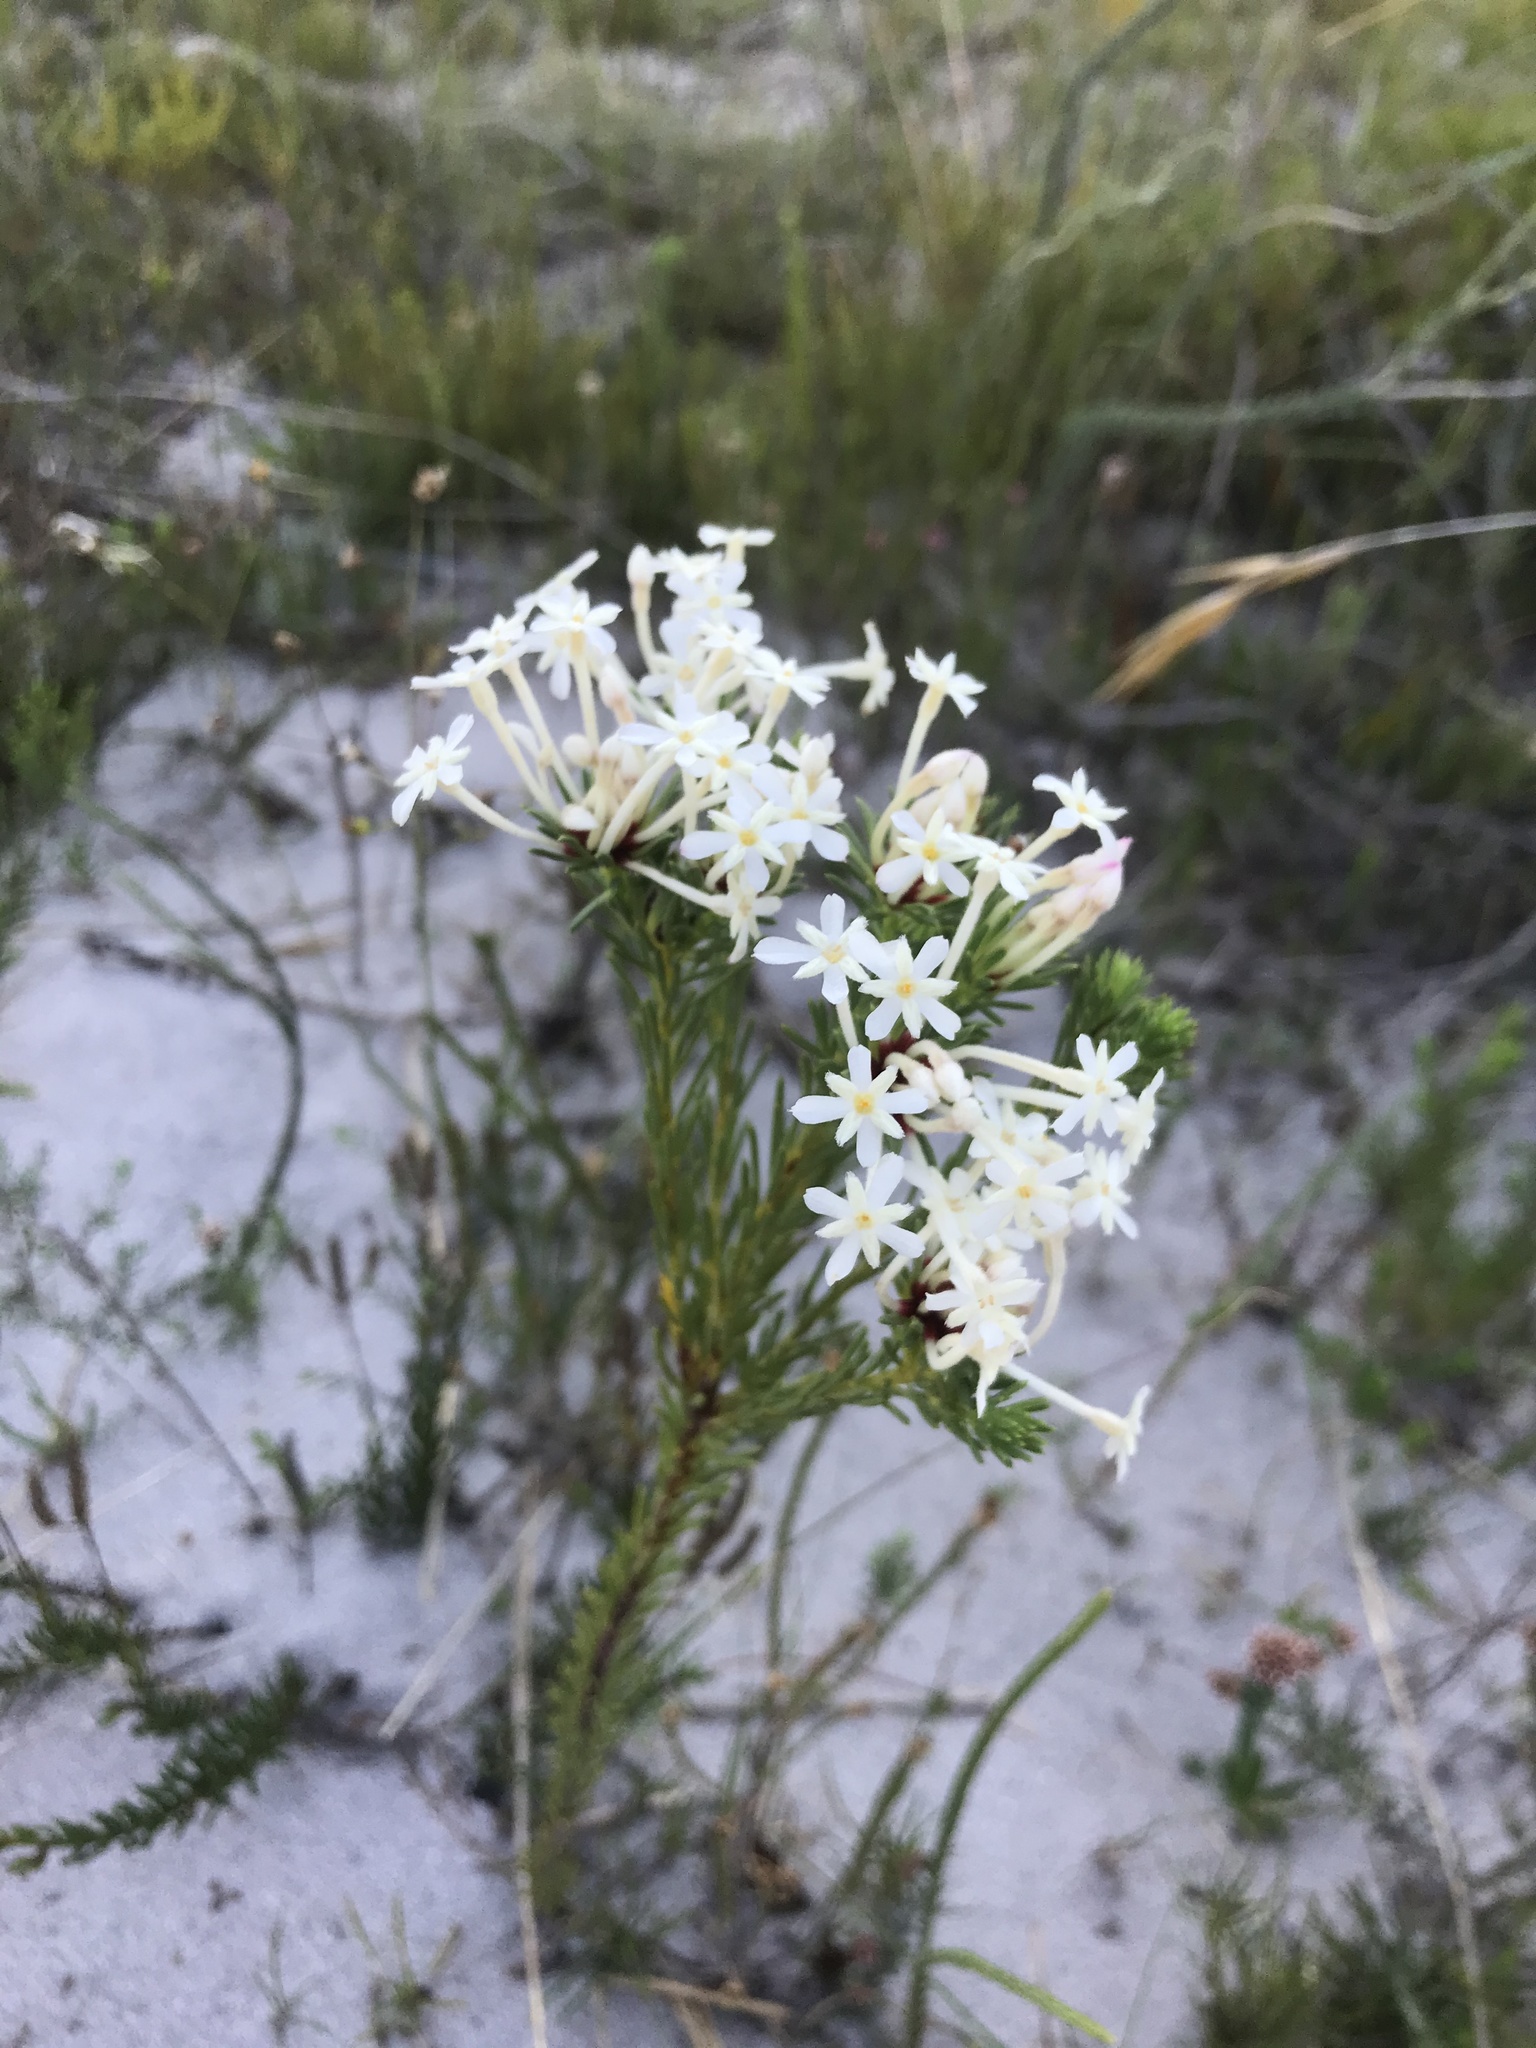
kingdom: Plantae
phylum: Tracheophyta
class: Magnoliopsida
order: Malvales
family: Thymelaeaceae
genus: Gnidia
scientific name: Gnidia pinifolia
